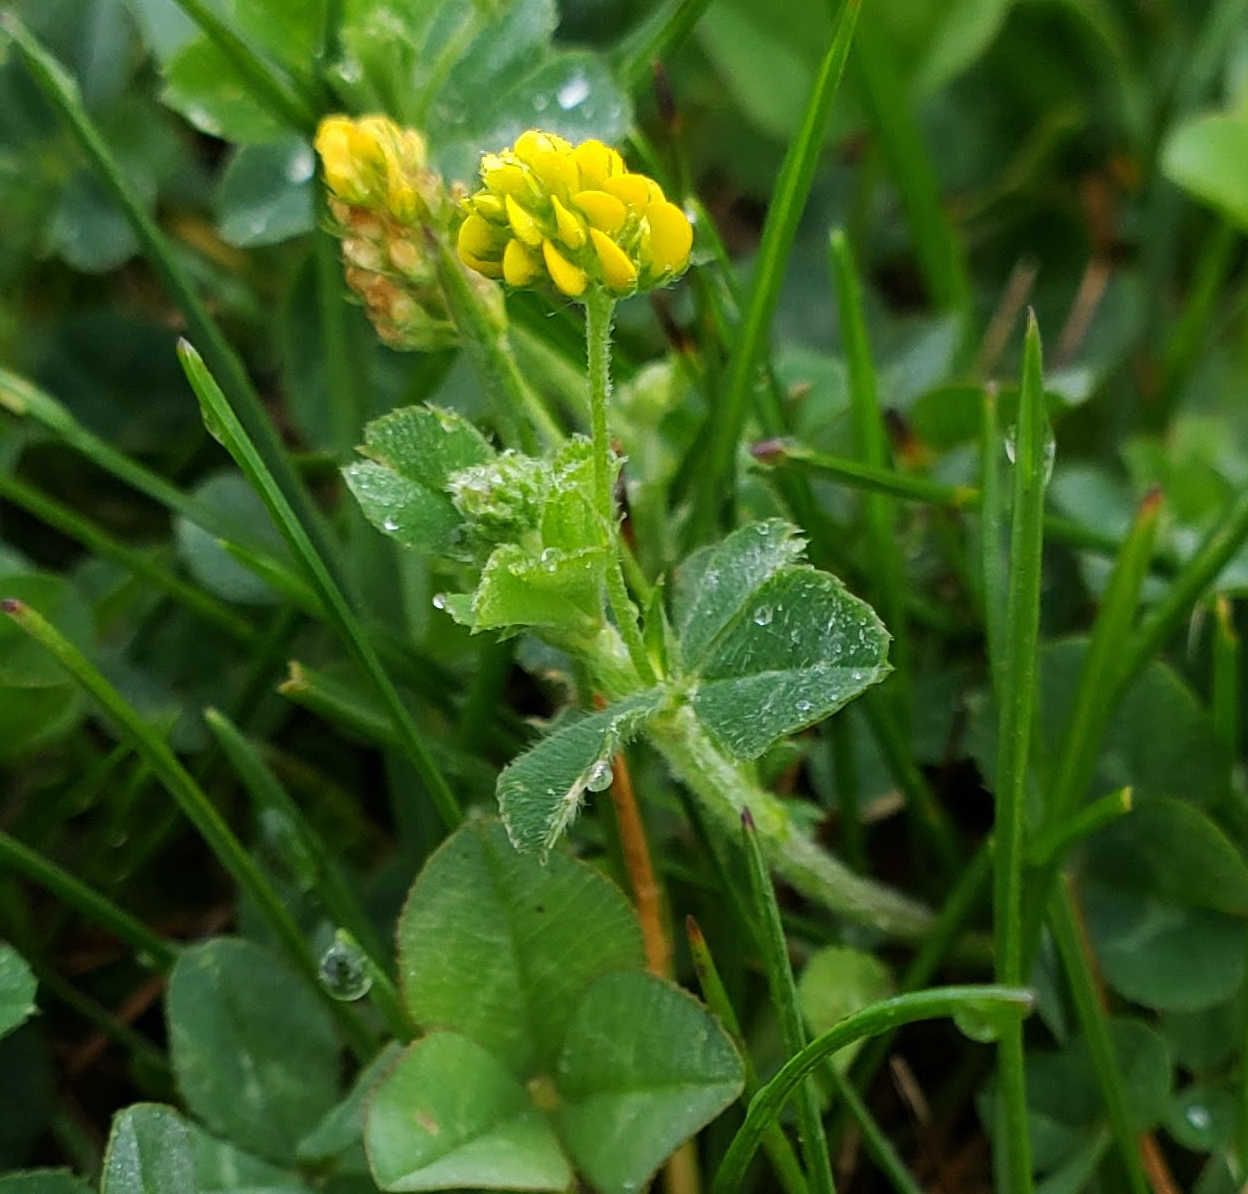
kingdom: Plantae
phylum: Tracheophyta
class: Magnoliopsida
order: Fabales
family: Fabaceae
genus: Medicago
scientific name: Medicago lupulina
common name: Black medick
